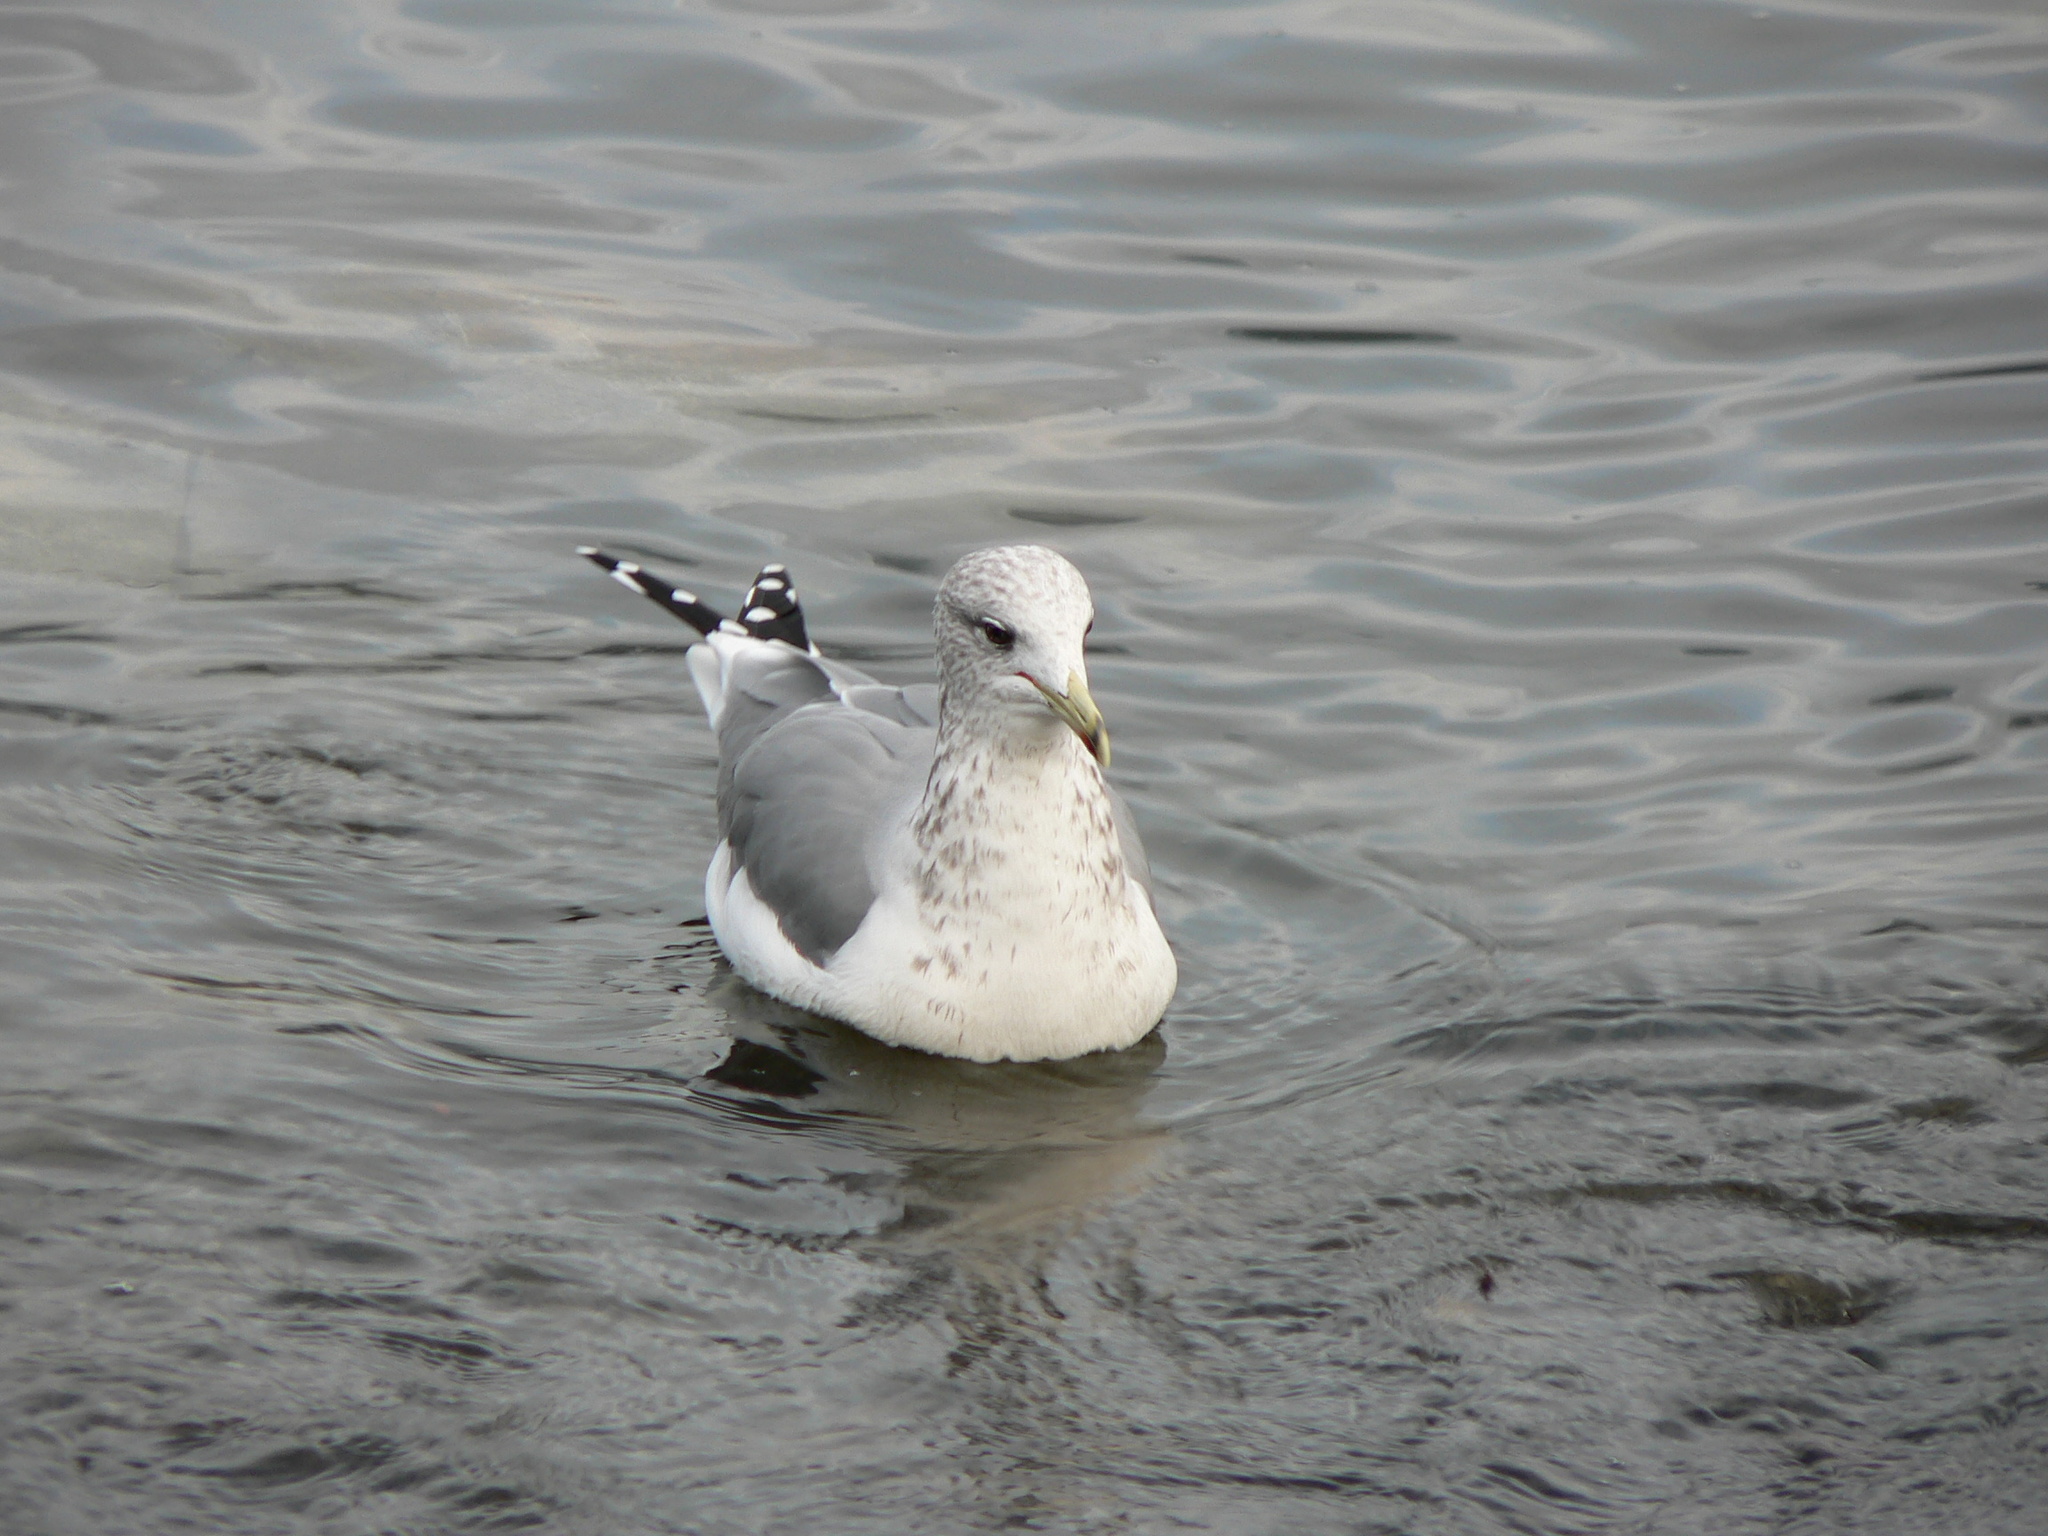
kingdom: Animalia
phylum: Chordata
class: Aves
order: Charadriiformes
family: Laridae
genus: Larus
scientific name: Larus californicus
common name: California gull
